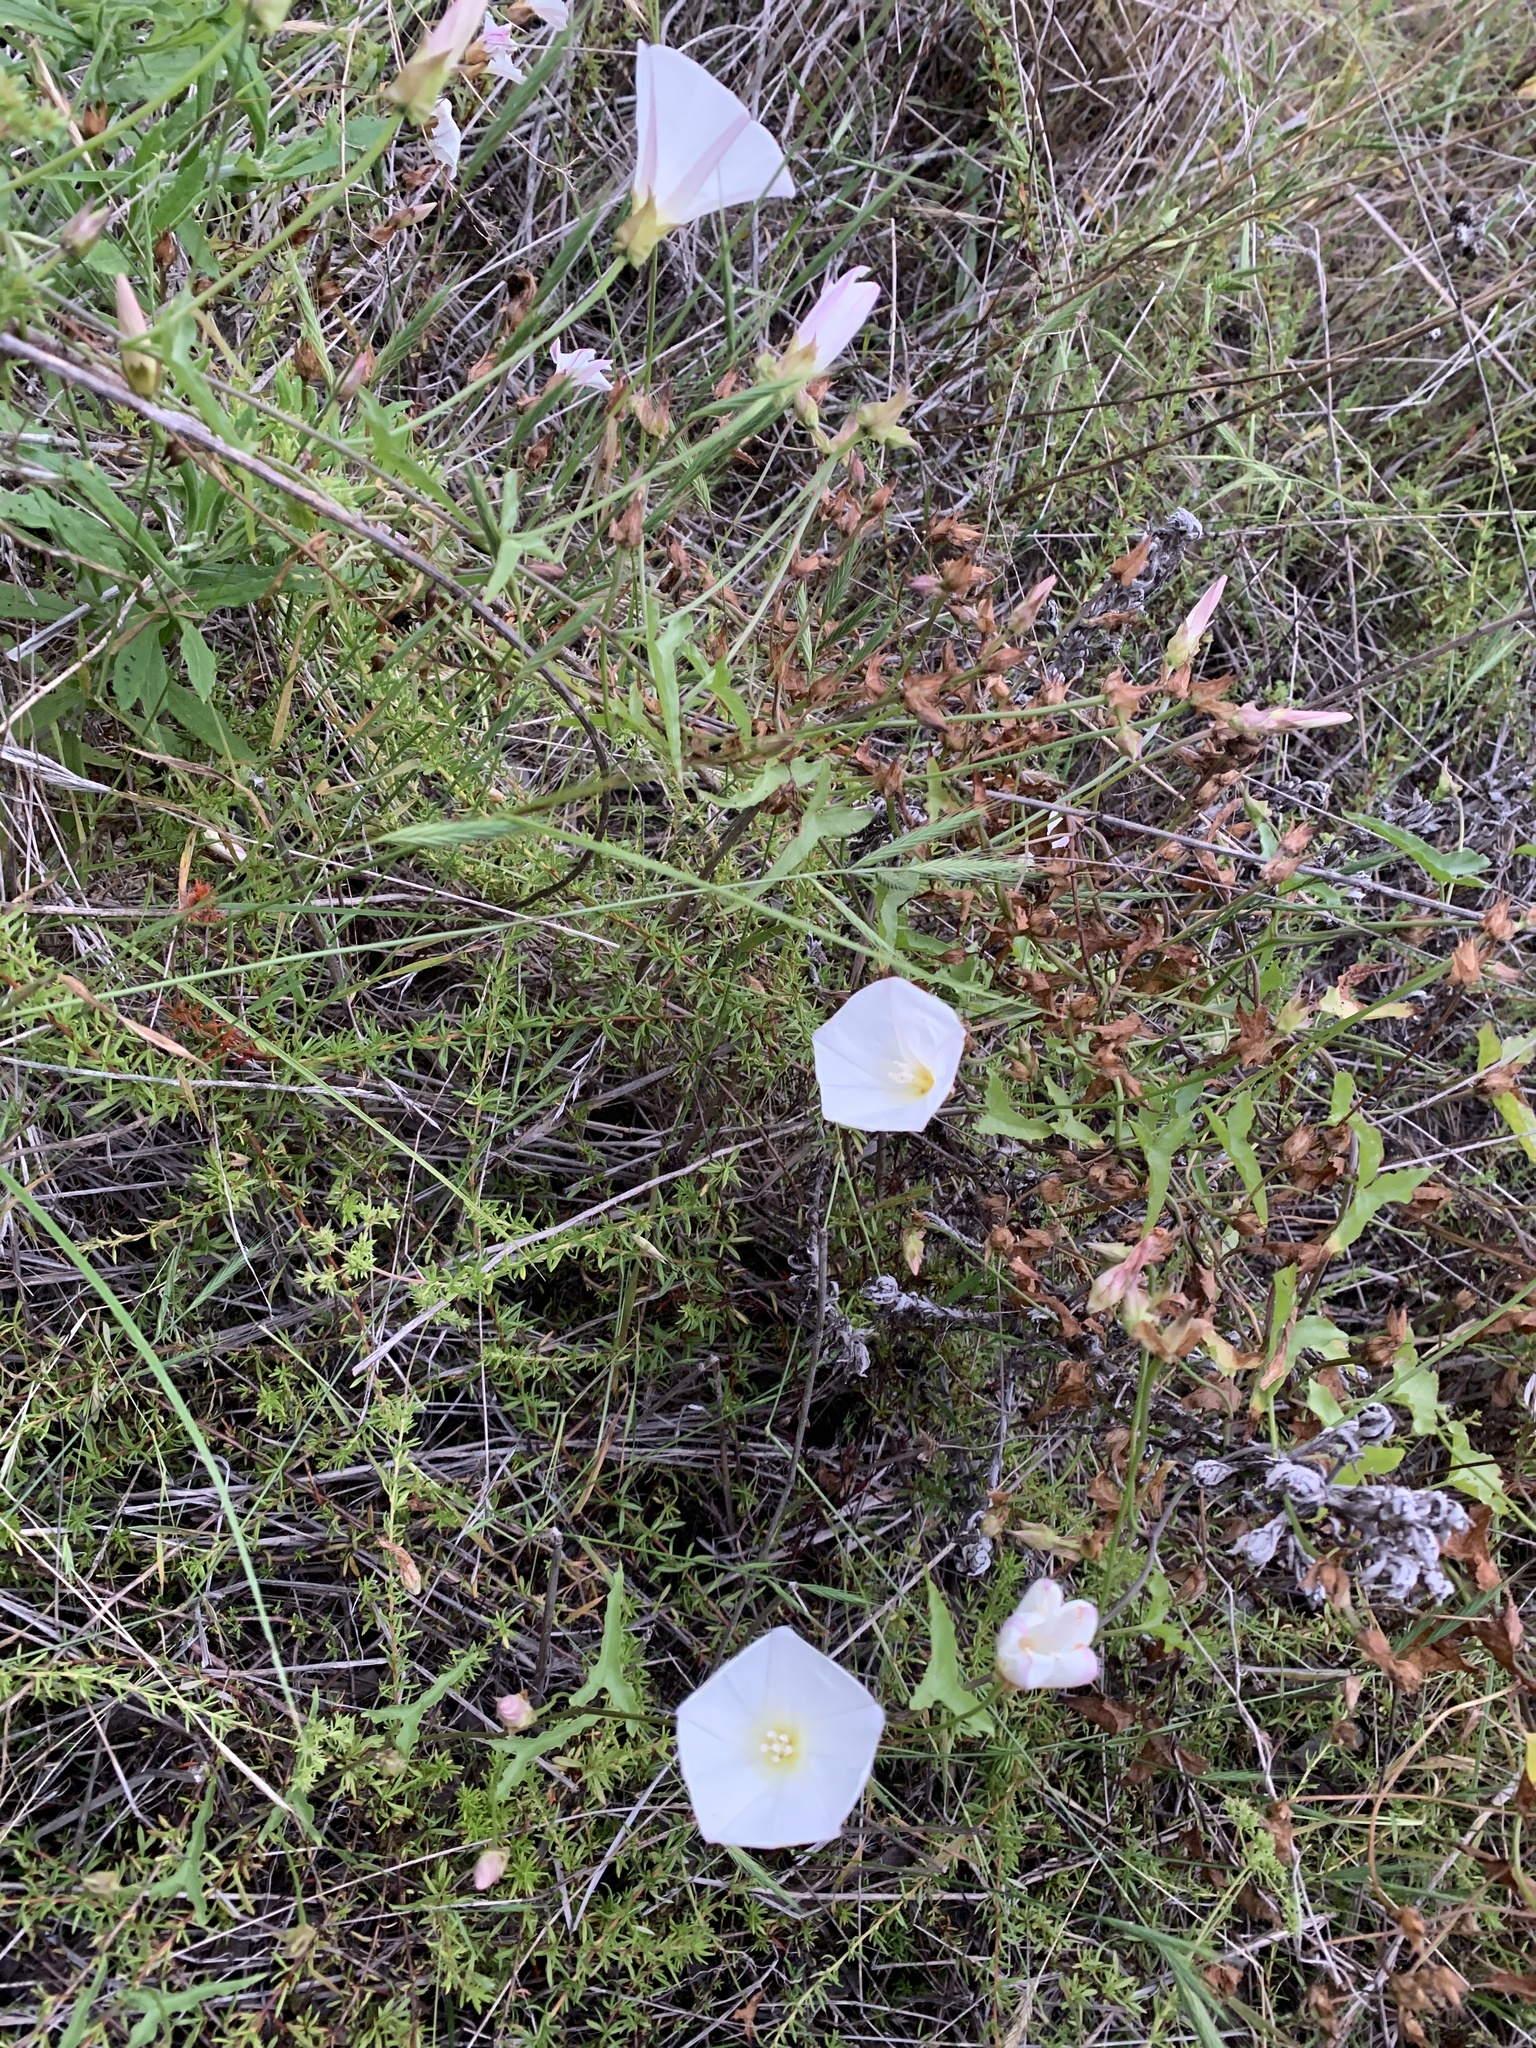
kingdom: Plantae
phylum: Tracheophyta
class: Magnoliopsida
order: Solanales
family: Convolvulaceae
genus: Calystegia
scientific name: Calystegia macrostegia
